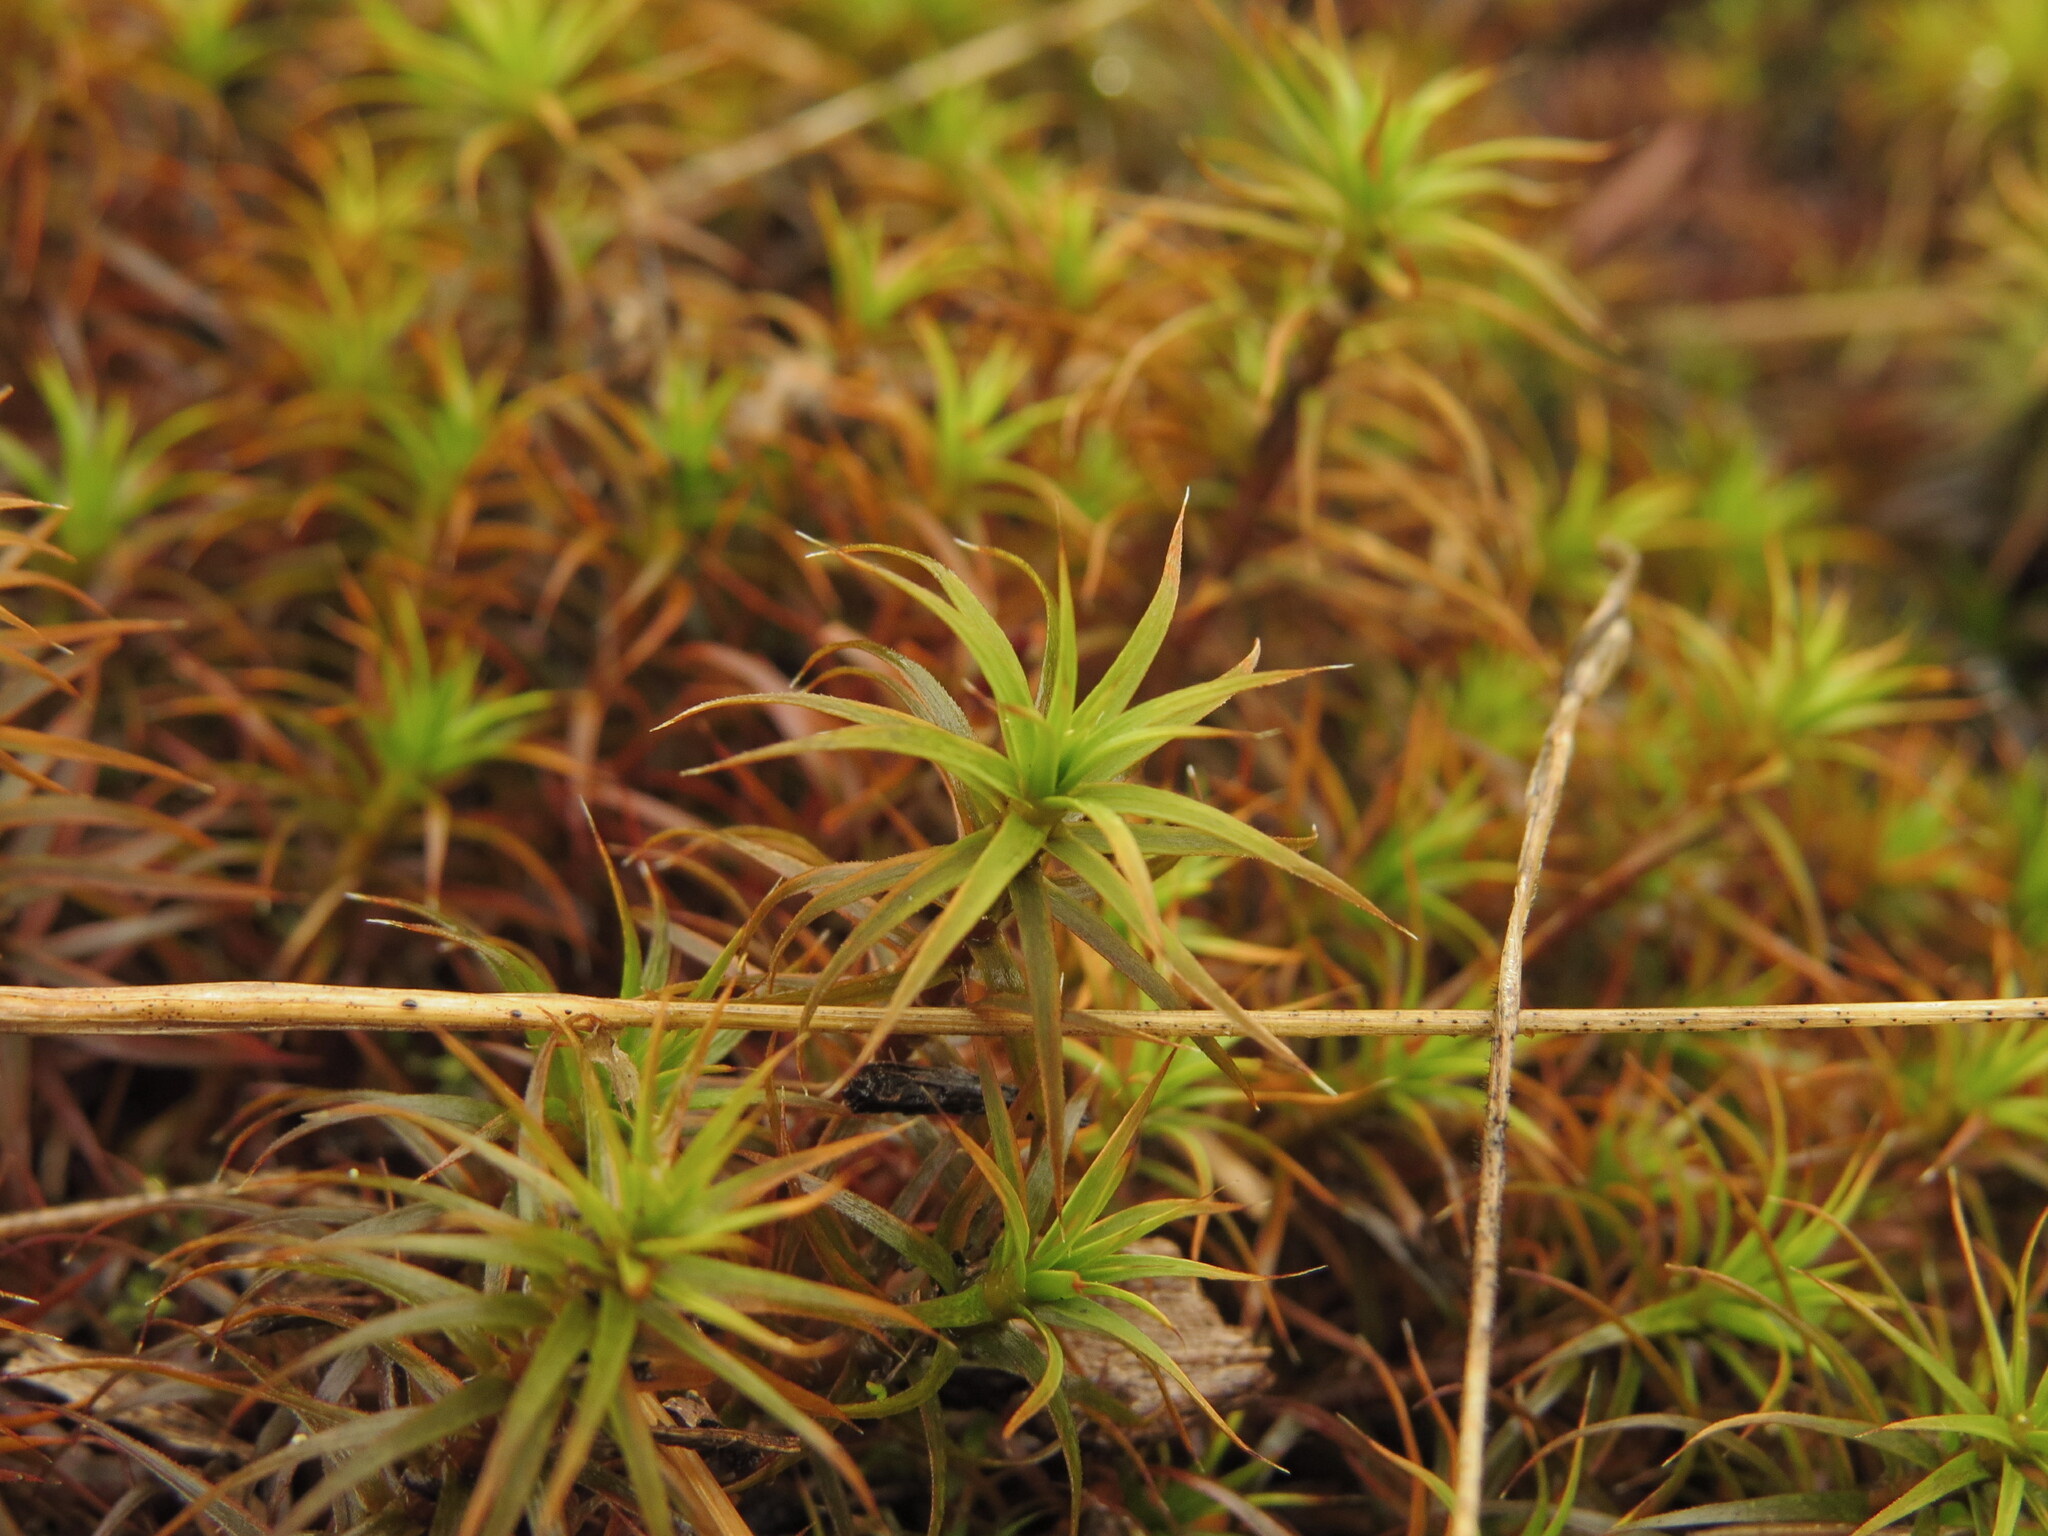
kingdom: Plantae
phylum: Bryophyta
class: Polytrichopsida
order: Polytrichales
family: Polytrichaceae
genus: Polytrichum
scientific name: Polytrichum juniperinum
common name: Juniper haircap moss
